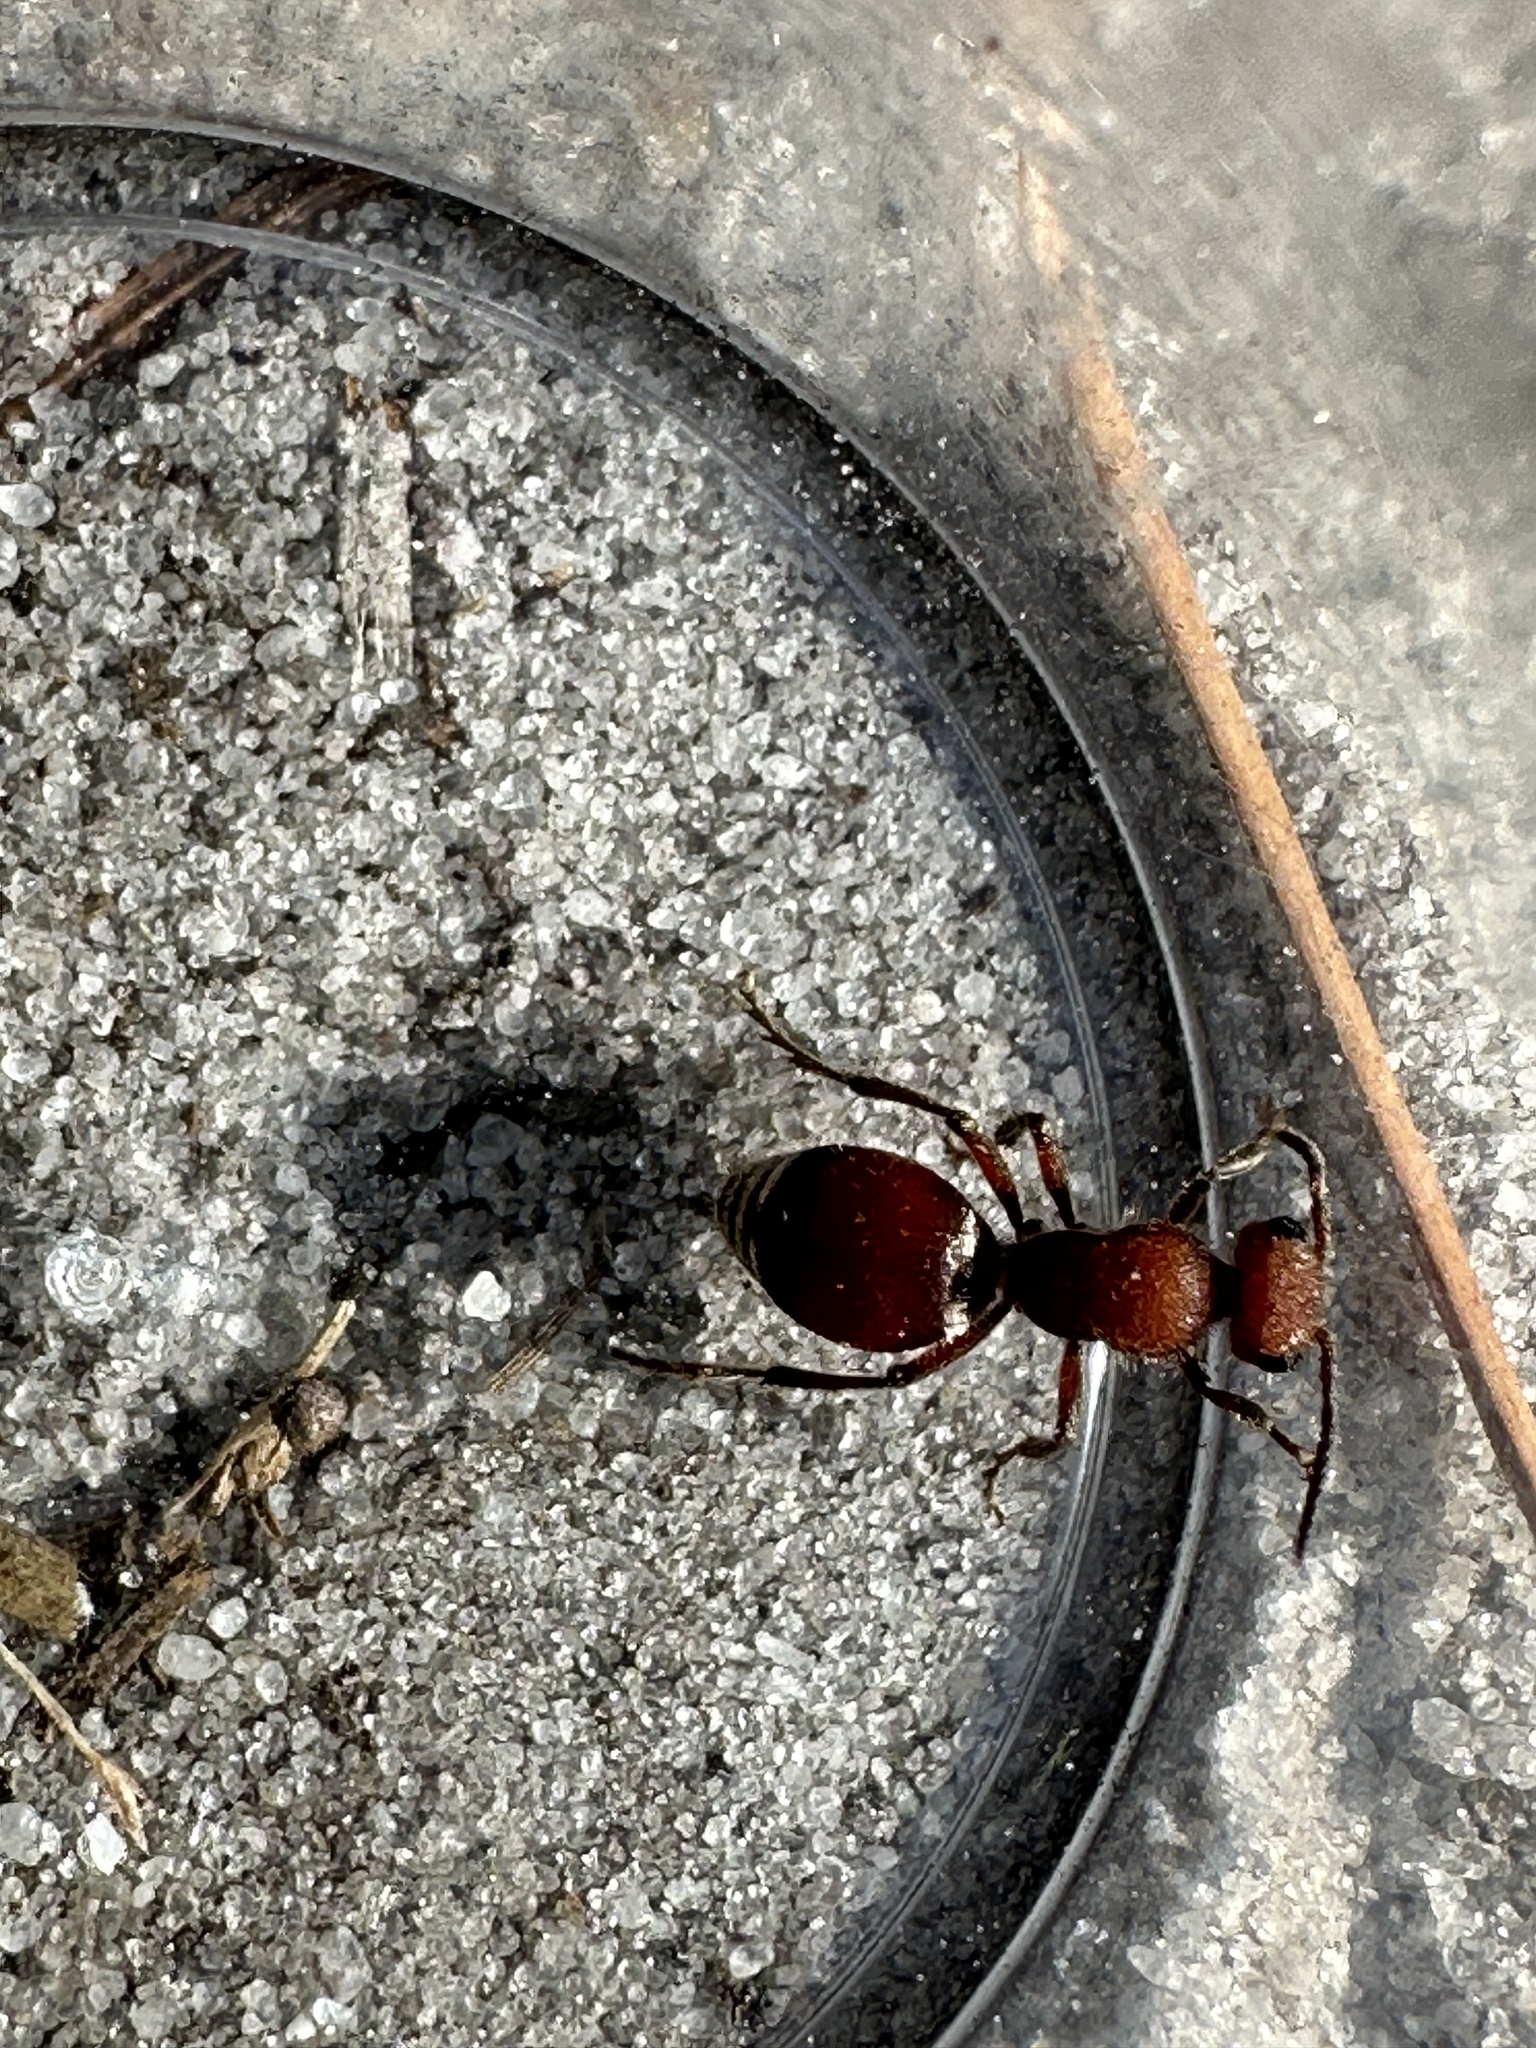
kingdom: Animalia
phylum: Arthropoda
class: Insecta
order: Hymenoptera
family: Mutillidae
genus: Pseudomethoca
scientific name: Pseudomethoca sanbornii
